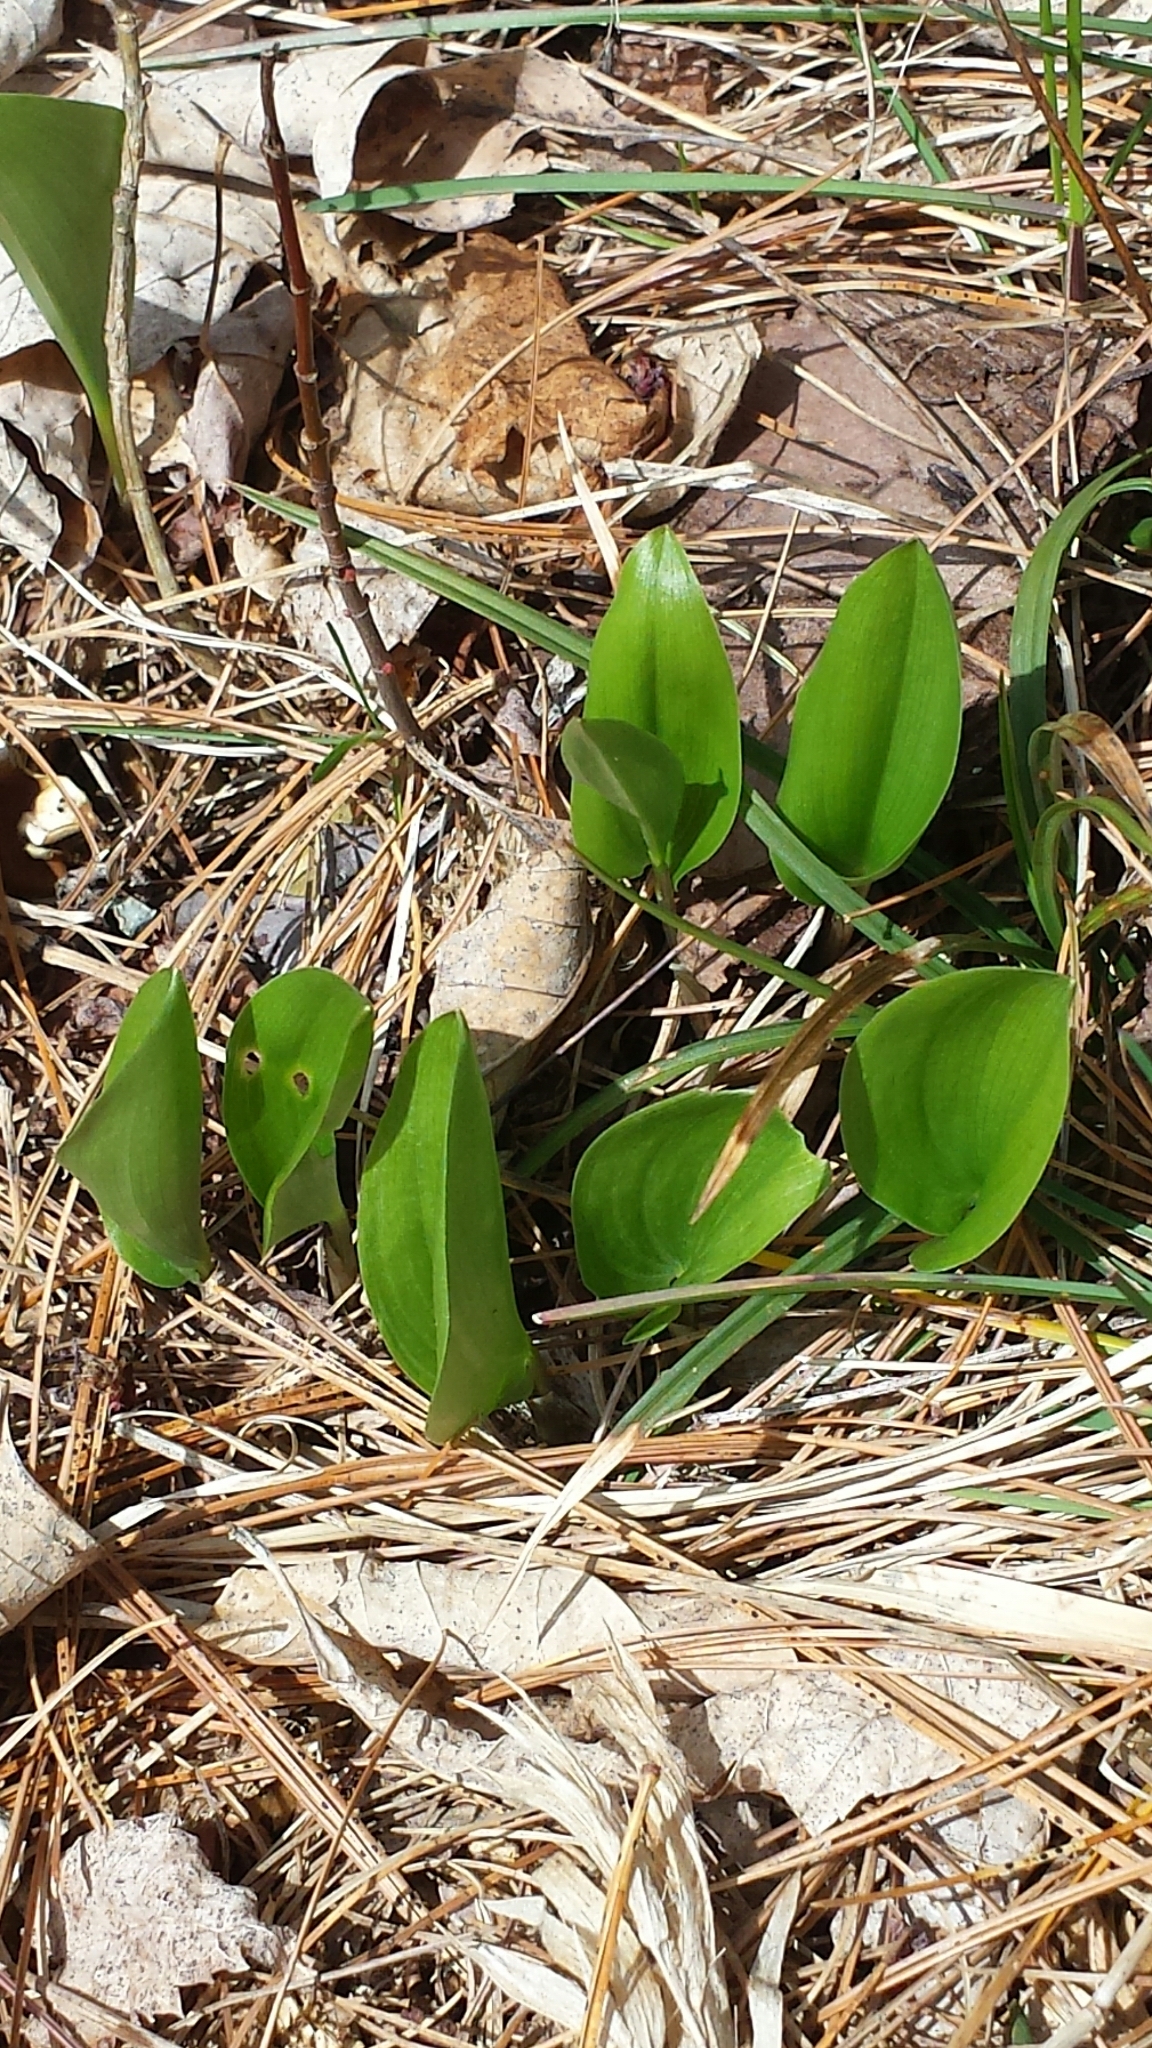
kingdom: Plantae
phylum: Tracheophyta
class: Liliopsida
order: Asparagales
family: Asparagaceae
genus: Maianthemum
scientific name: Maianthemum canadense
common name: False lily-of-the-valley
